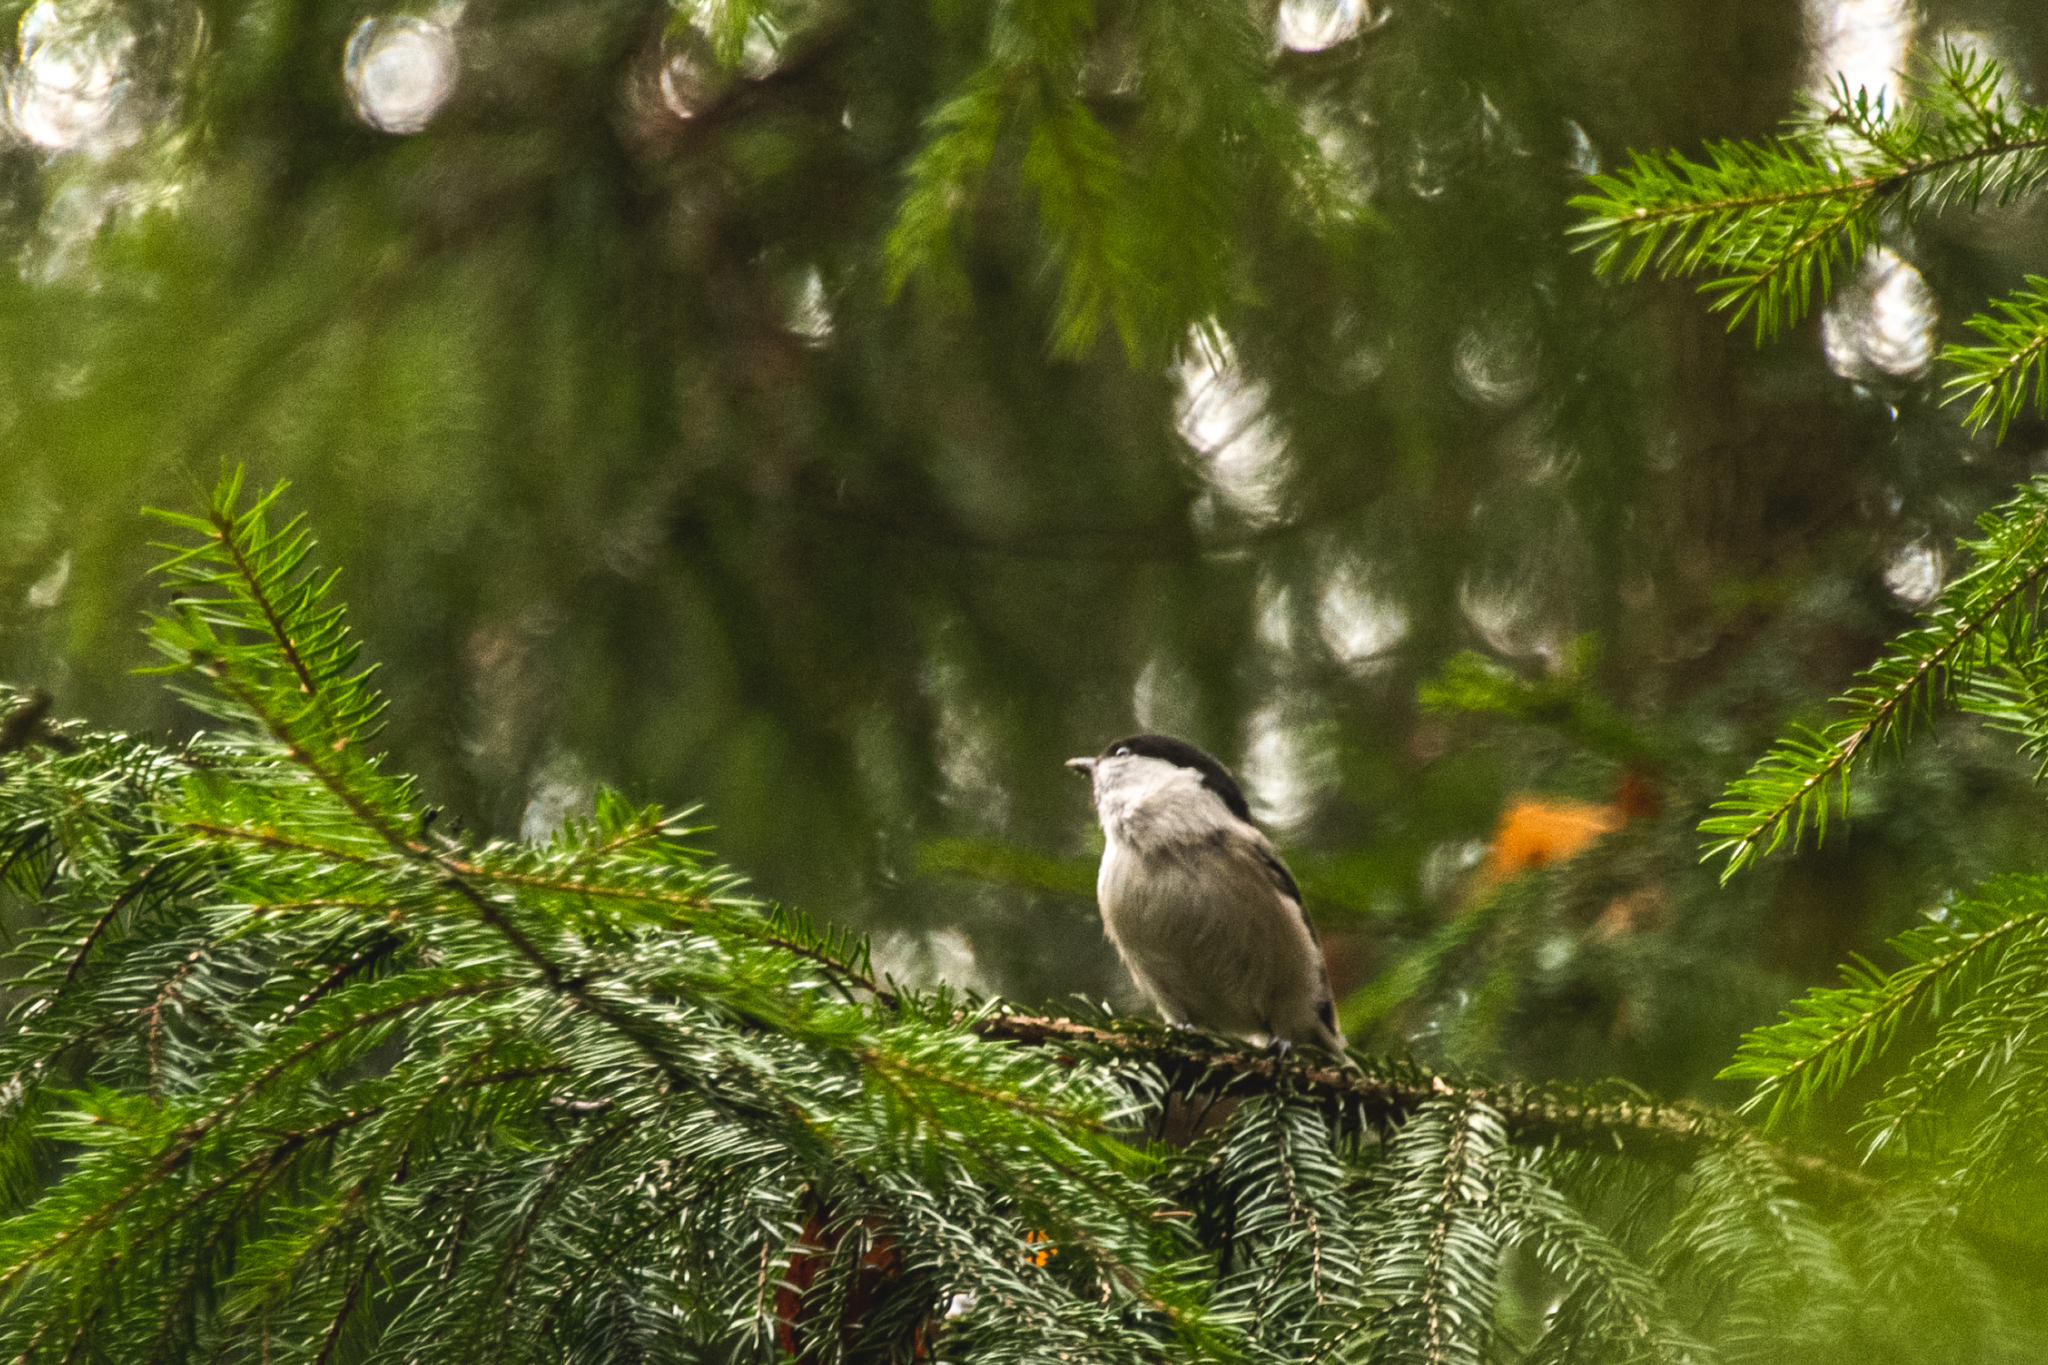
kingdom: Animalia
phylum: Chordata
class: Aves
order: Passeriformes
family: Paridae
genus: Poecile
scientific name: Poecile montanus
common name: Willow tit
